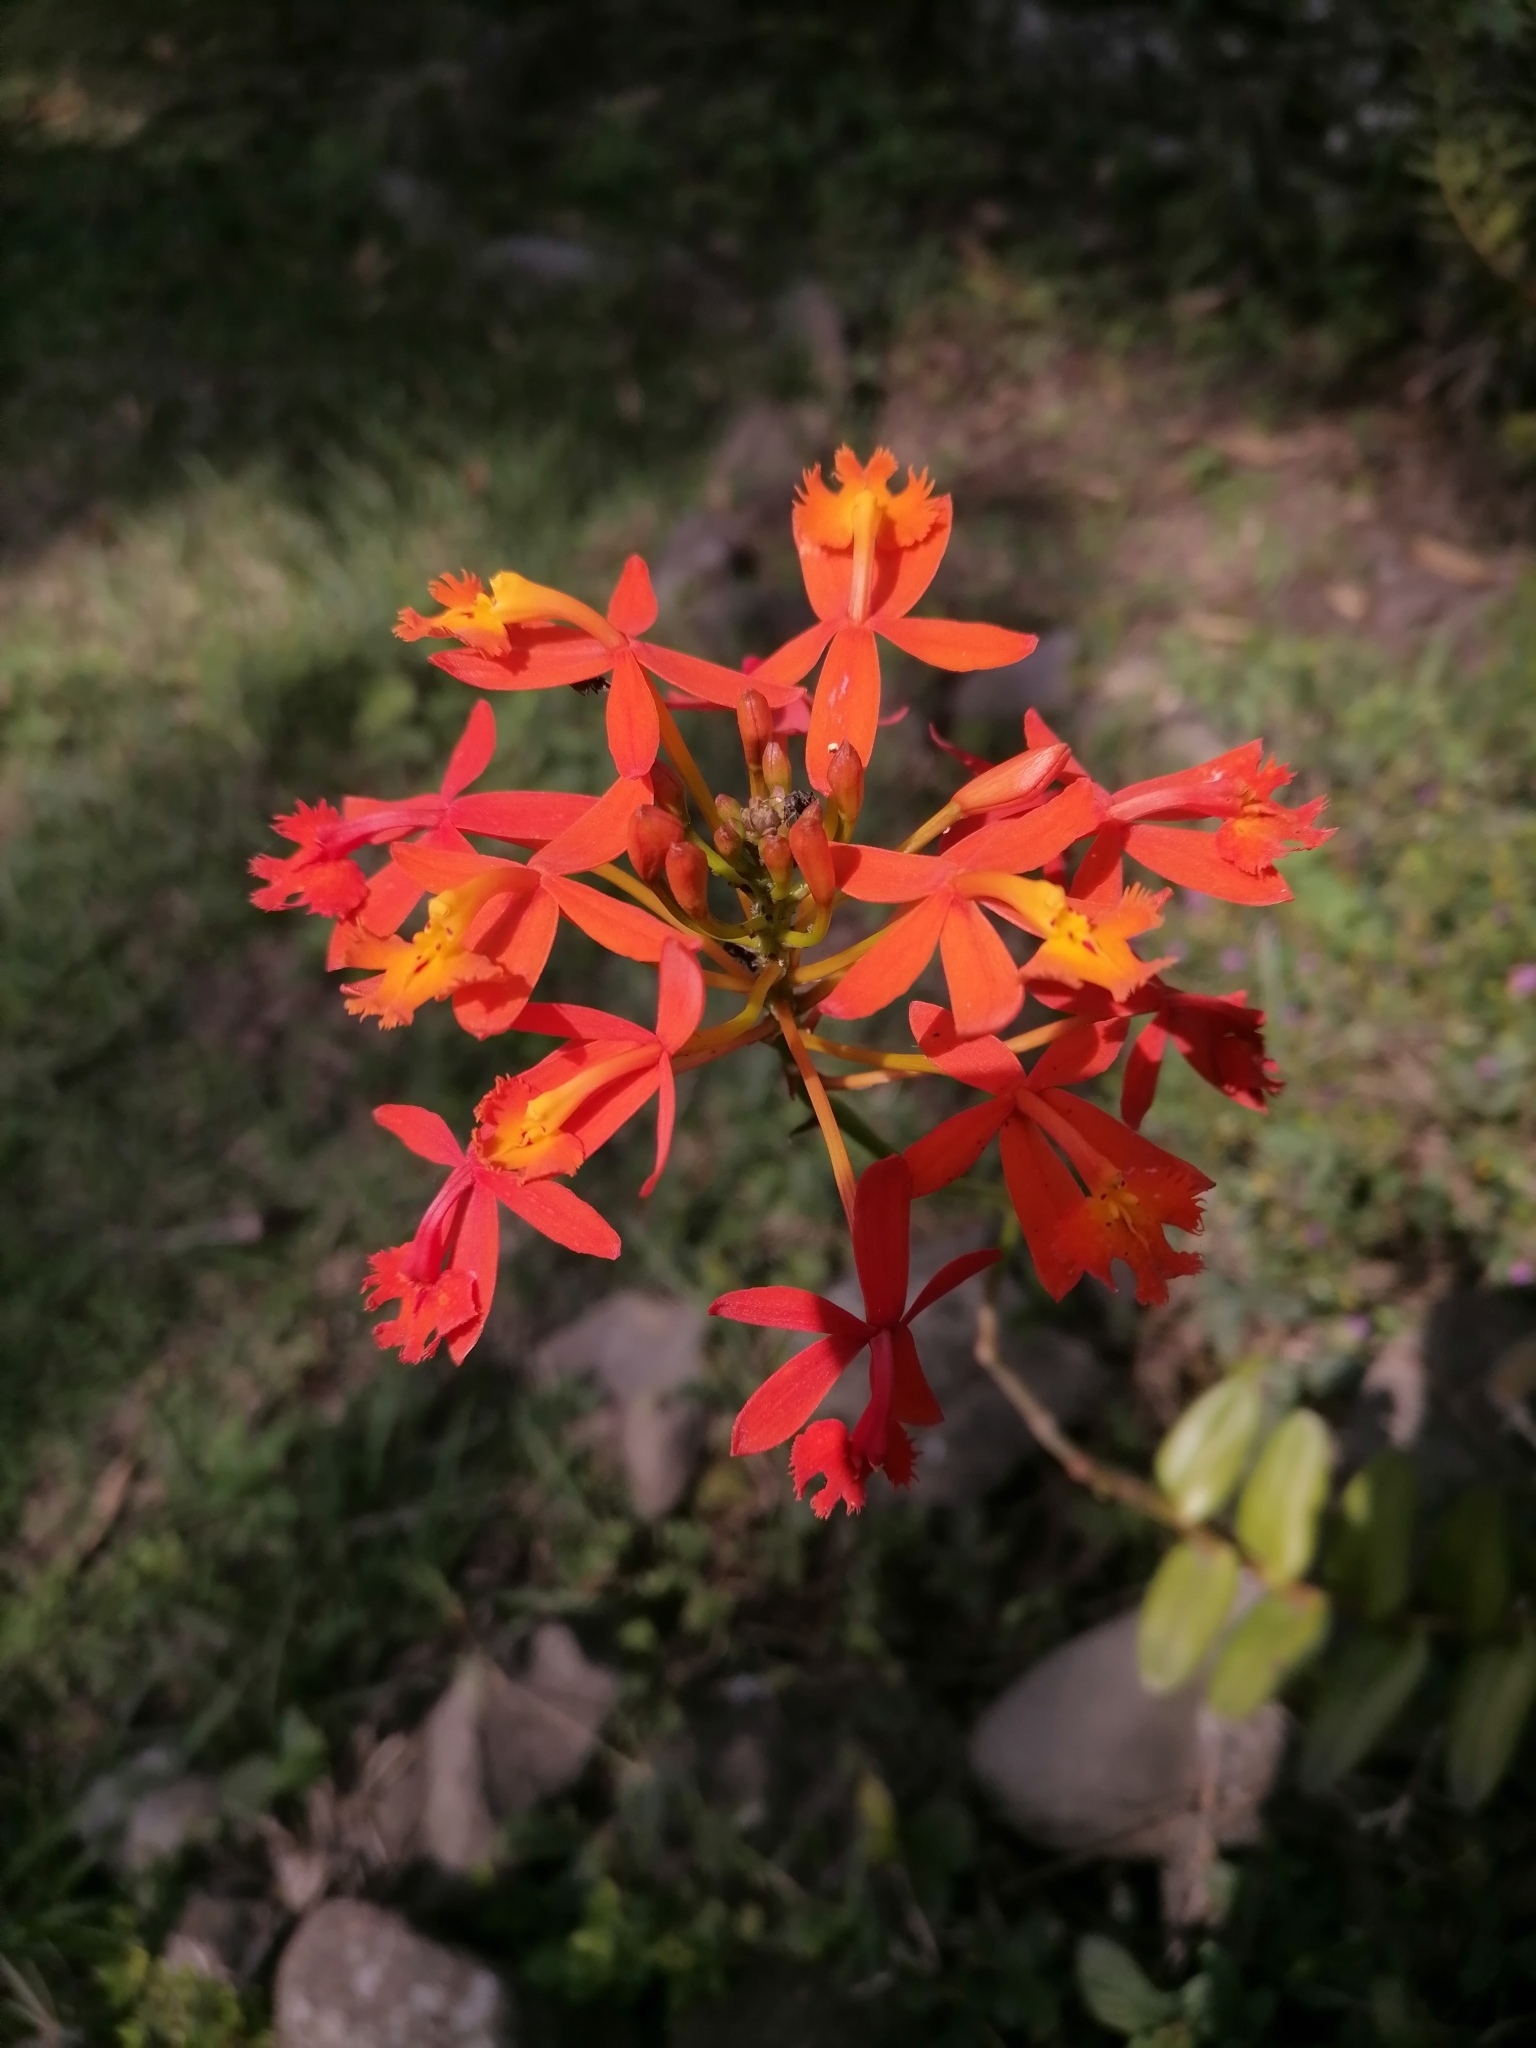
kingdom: Plantae
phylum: Tracheophyta
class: Liliopsida
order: Asparagales
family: Orchidaceae
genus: Epidendrum
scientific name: Epidendrum radicans
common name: Fire star orchid
